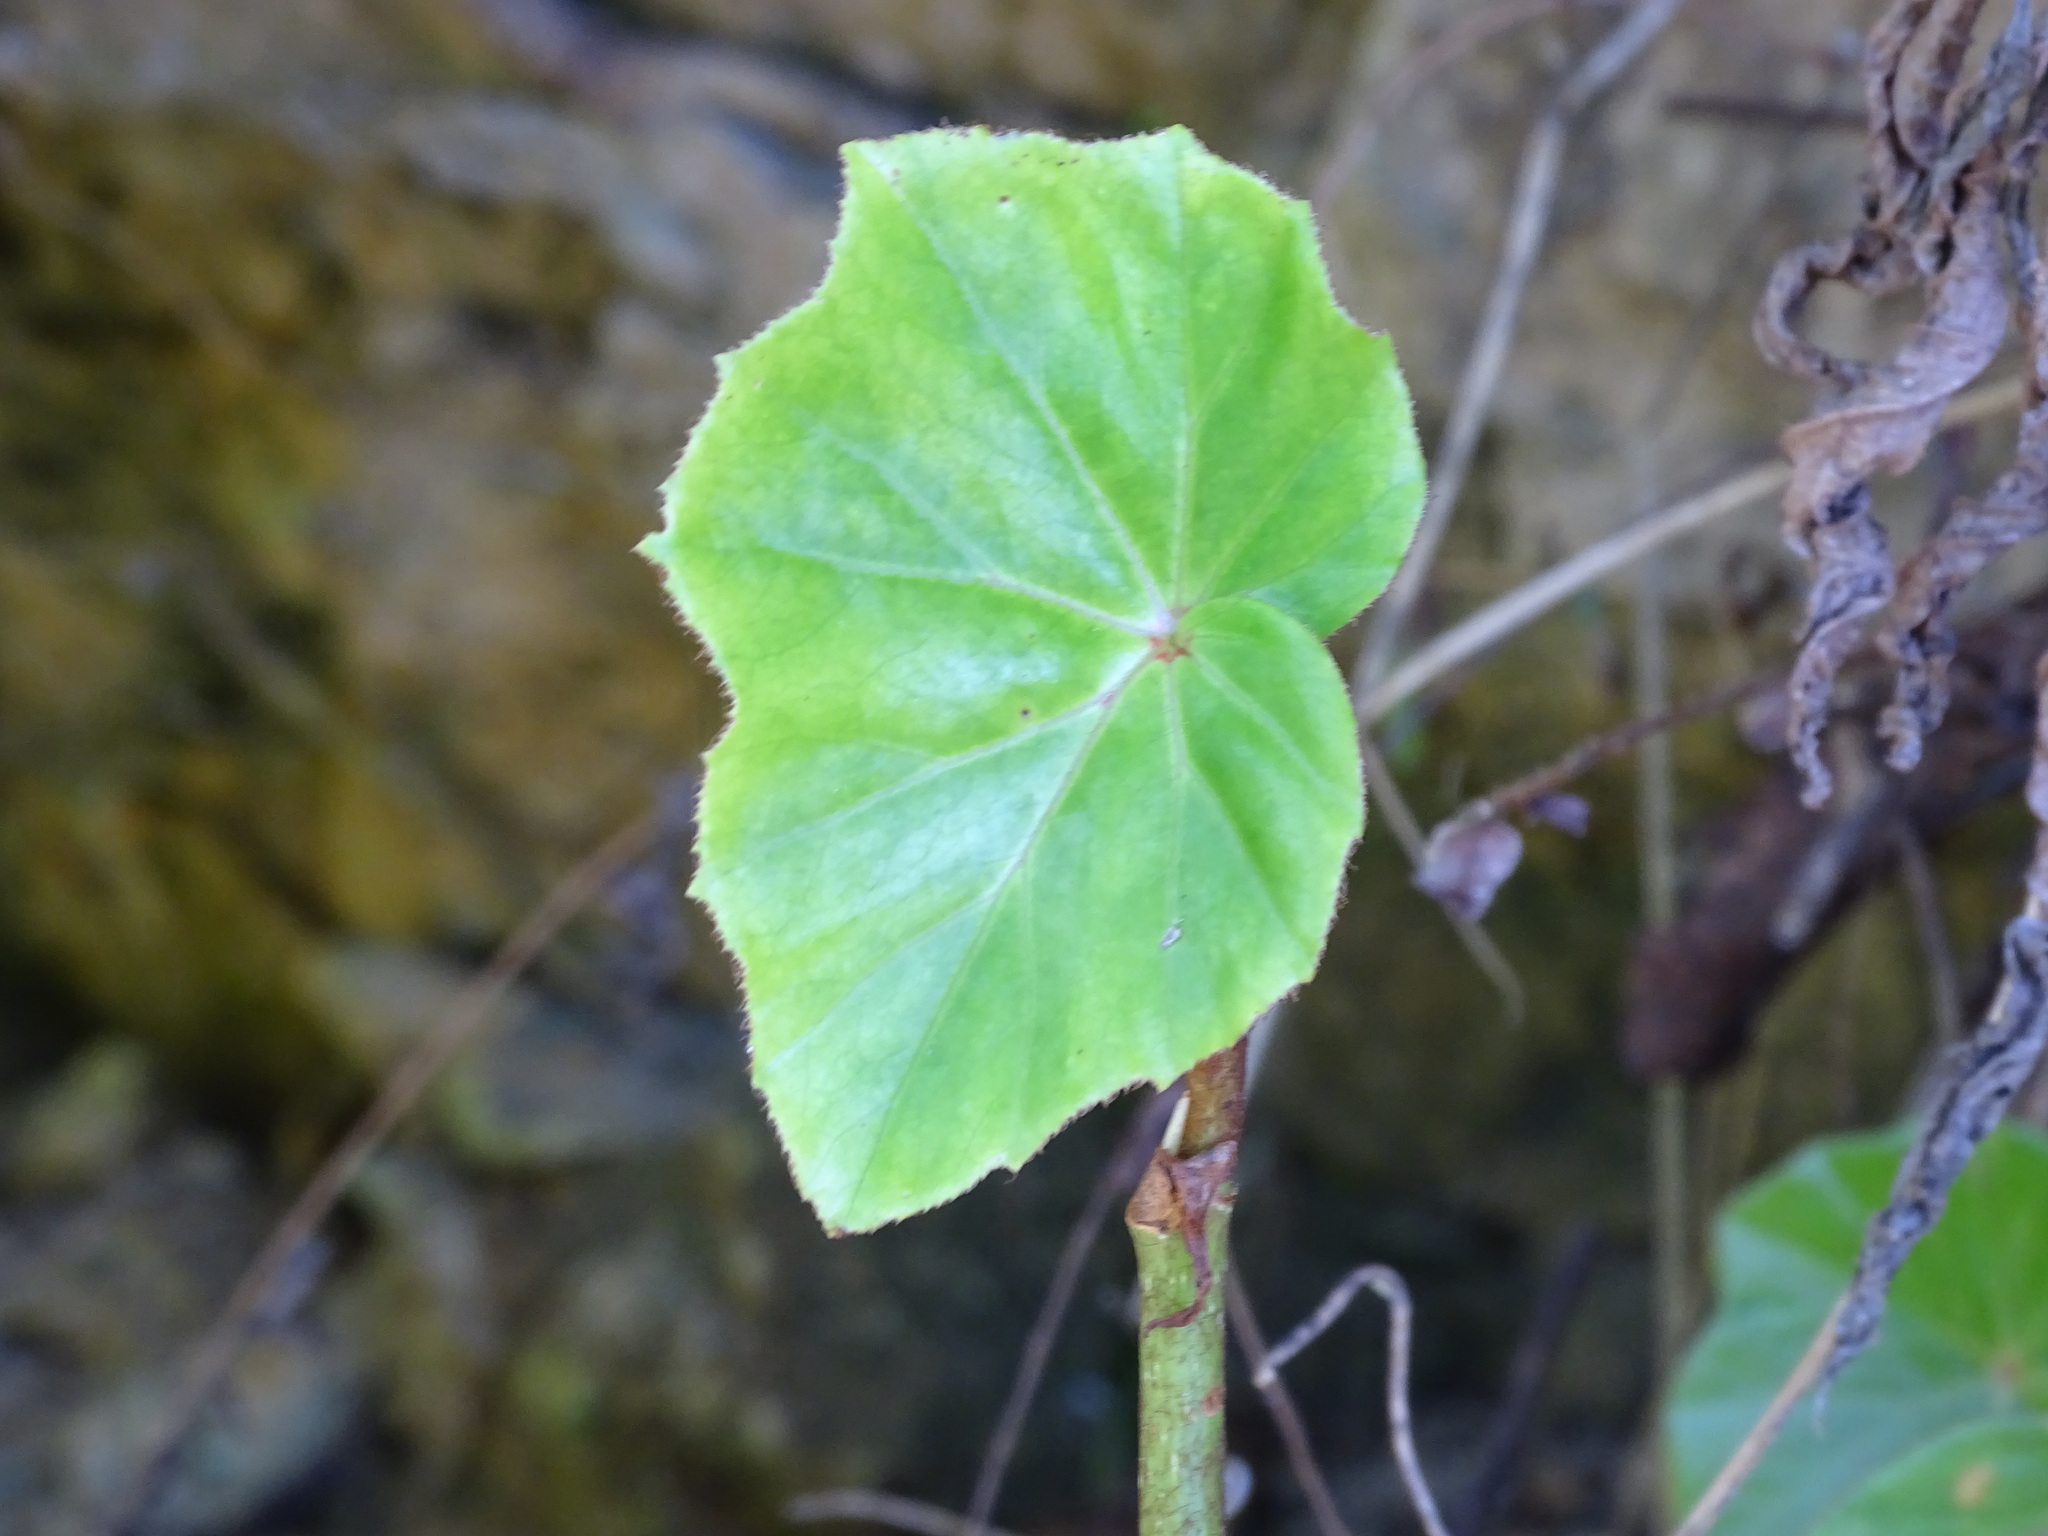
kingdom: Plantae
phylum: Tracheophyta
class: Magnoliopsida
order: Cucurbitales
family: Begoniaceae
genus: Begonia
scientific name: Begonia sartorii
